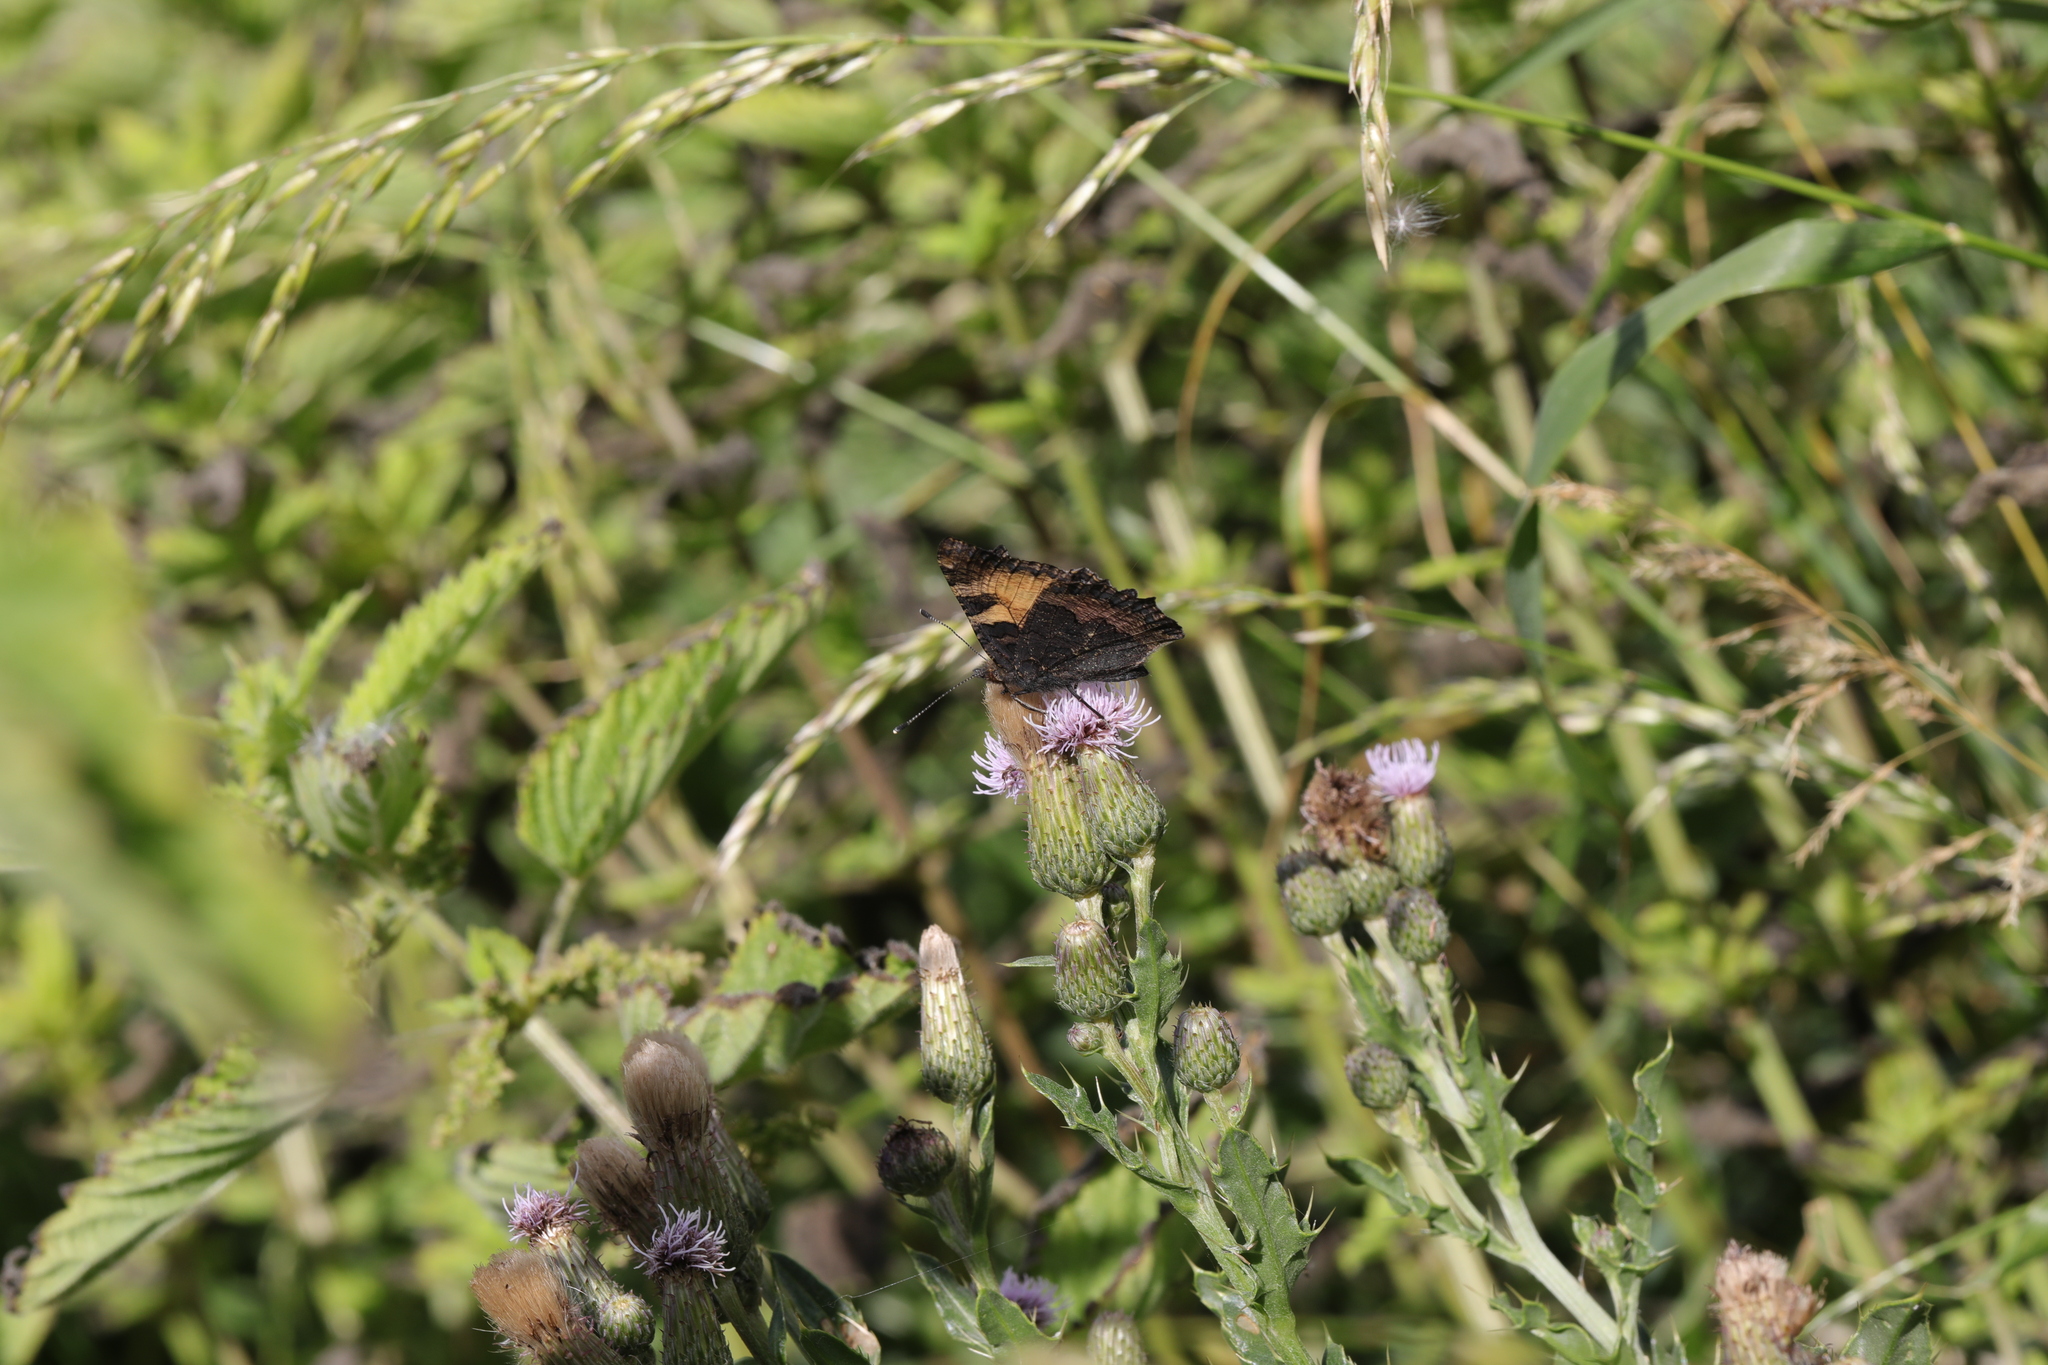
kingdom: Animalia
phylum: Arthropoda
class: Insecta
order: Lepidoptera
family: Nymphalidae
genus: Aglais
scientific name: Aglais urticae
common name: Small tortoiseshell
